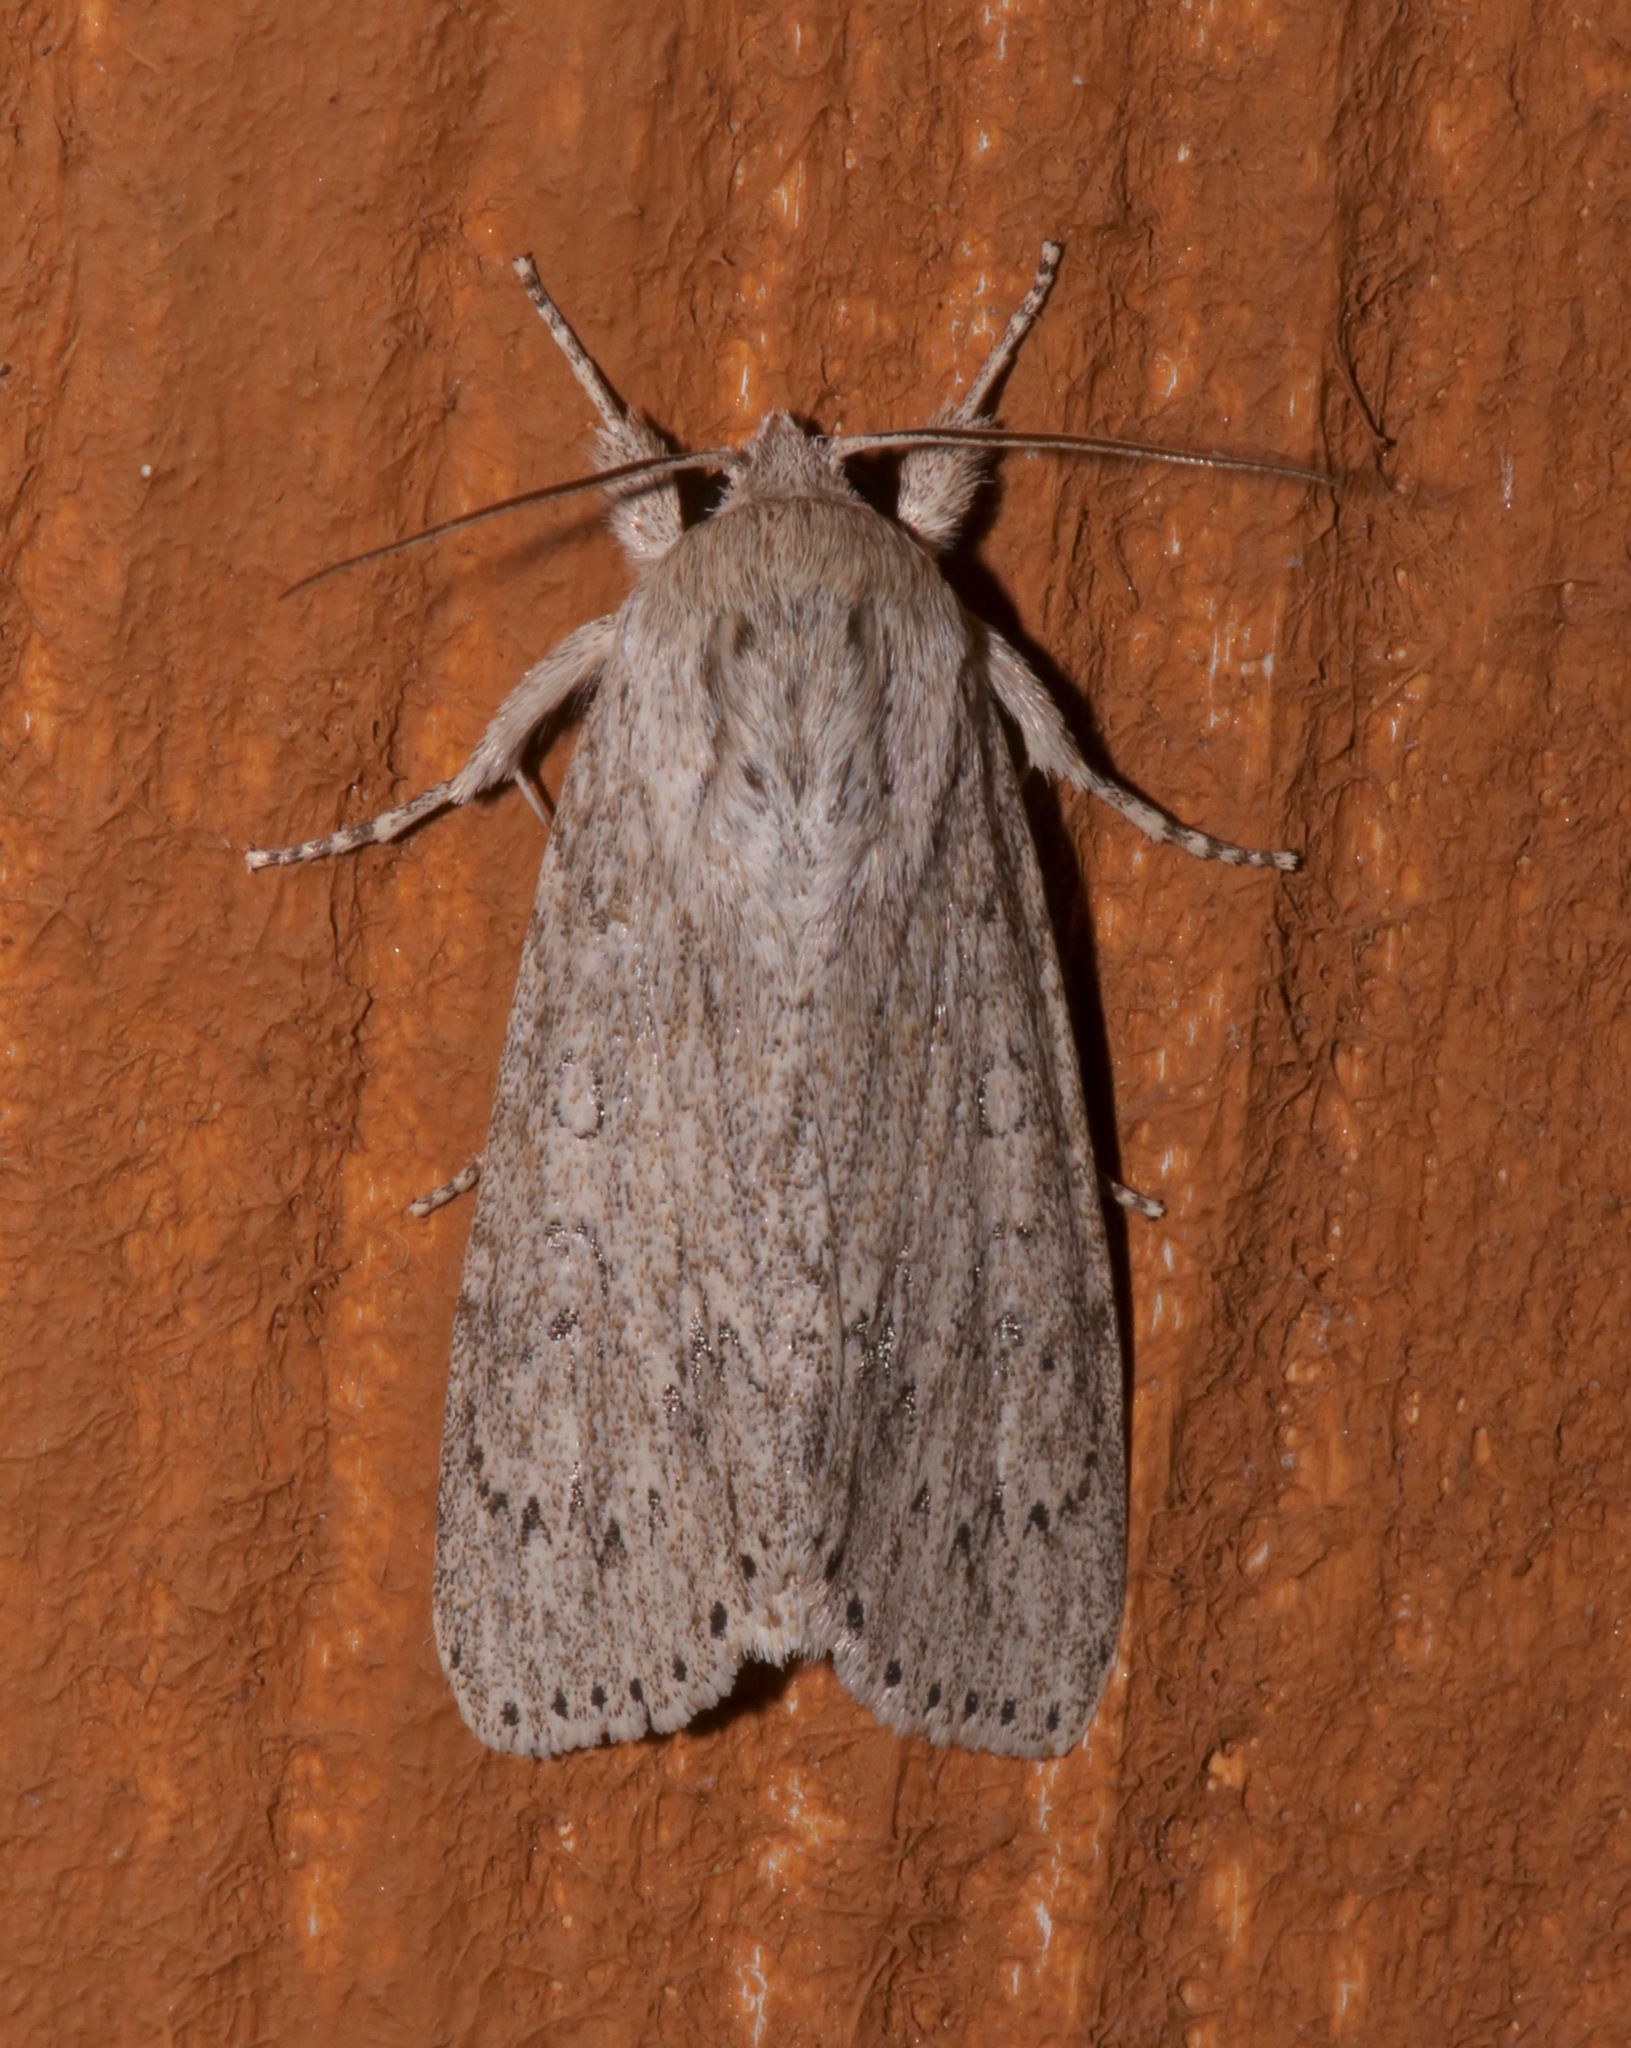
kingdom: Animalia
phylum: Arthropoda
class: Insecta
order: Lepidoptera
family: Noctuidae
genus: Acronicta
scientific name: Acronicta oblinita
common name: Smeared dagger
